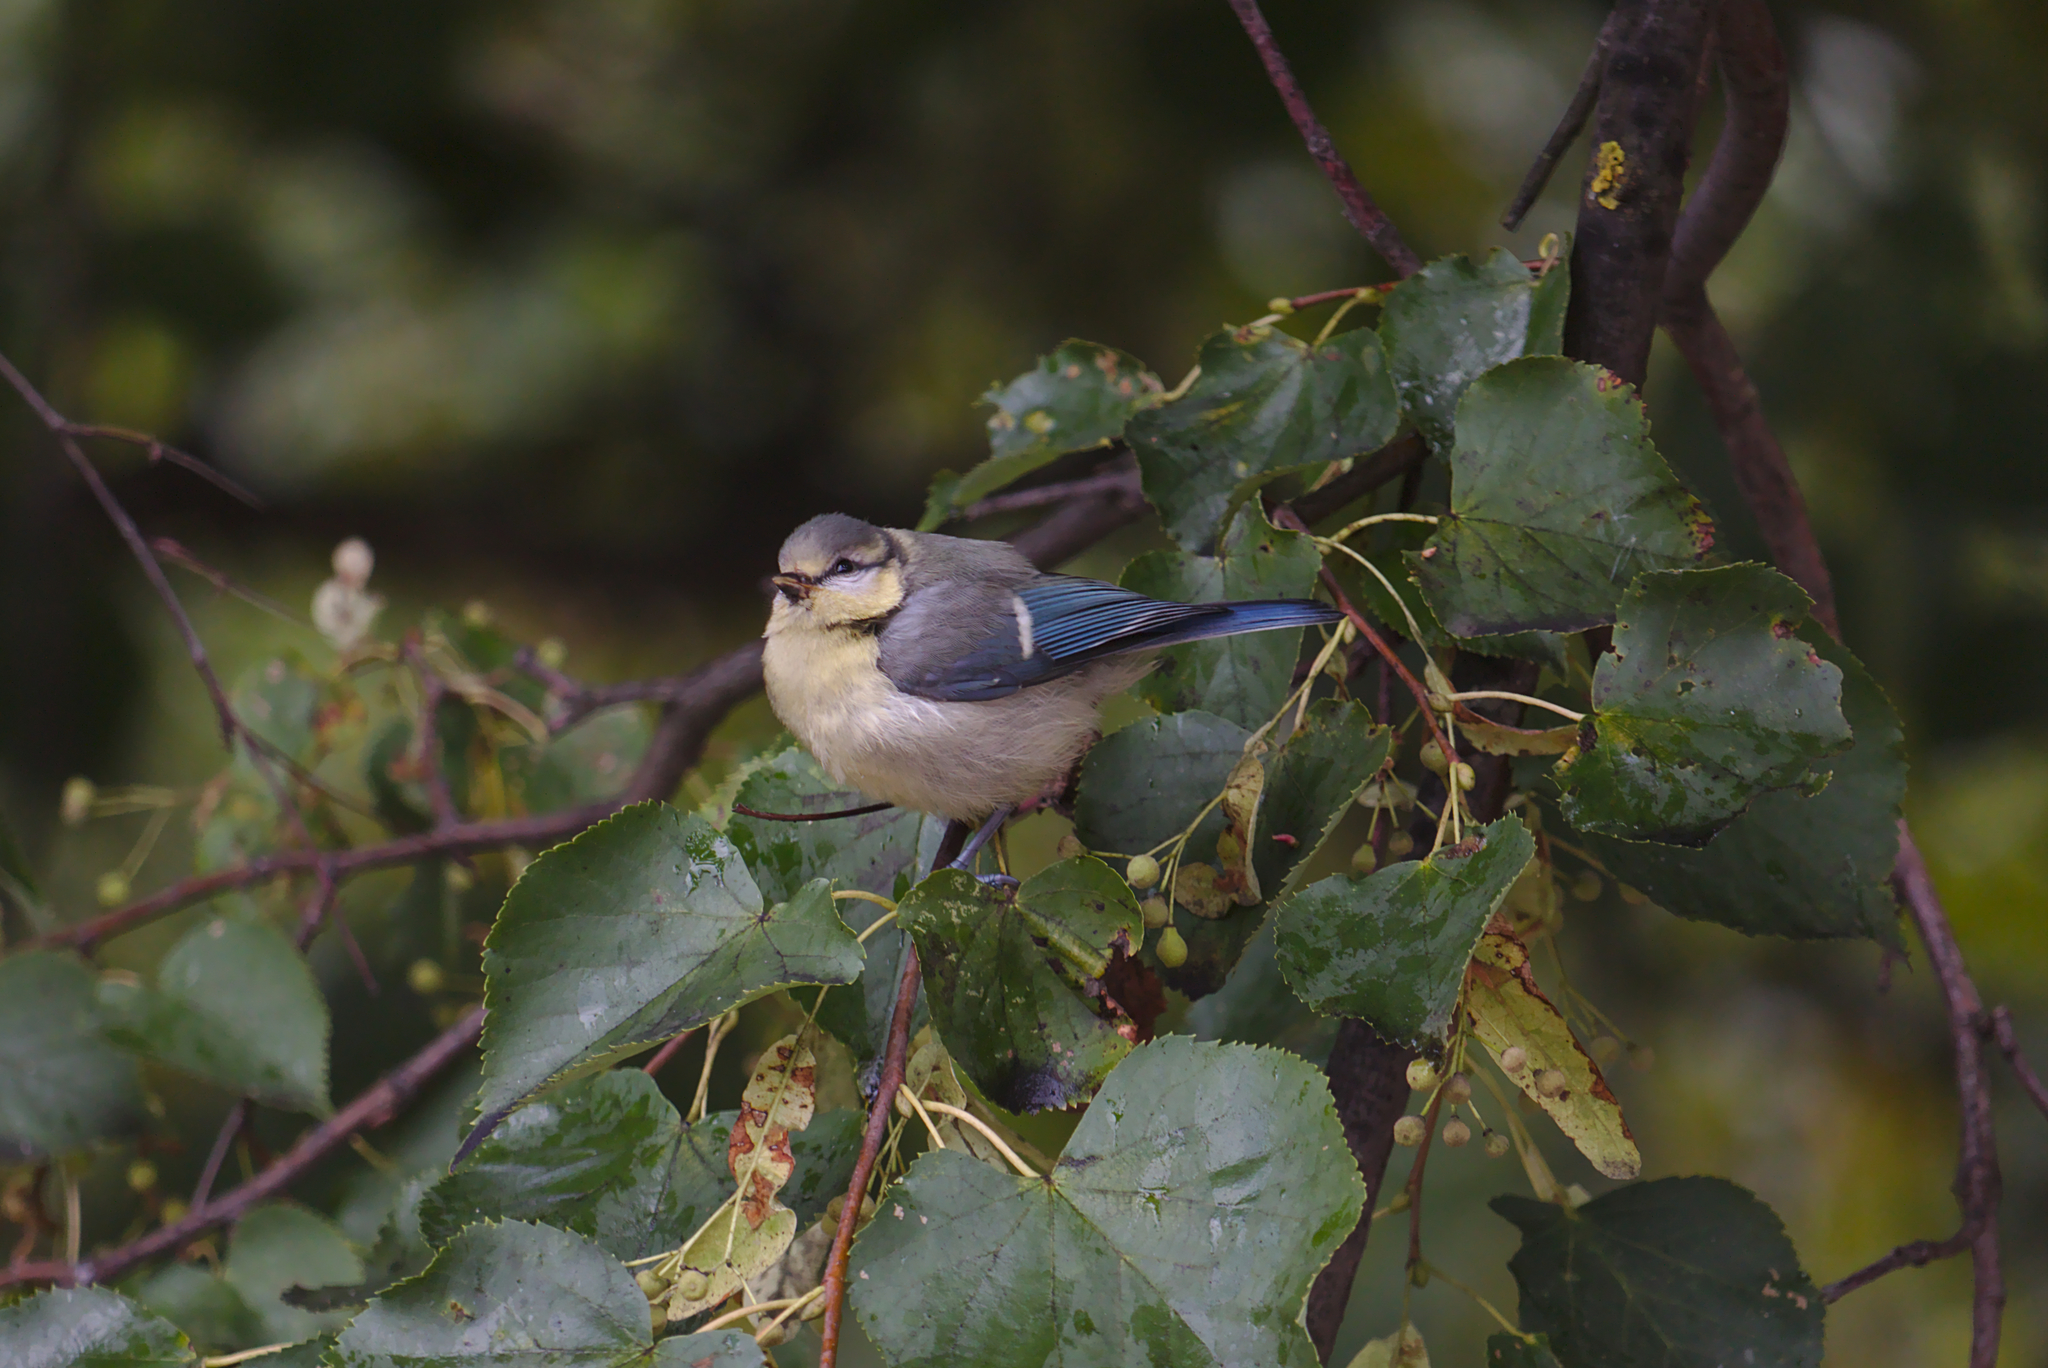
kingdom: Animalia
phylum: Chordata
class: Aves
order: Passeriformes
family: Paridae
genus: Cyanistes
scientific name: Cyanistes caeruleus
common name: Eurasian blue tit
